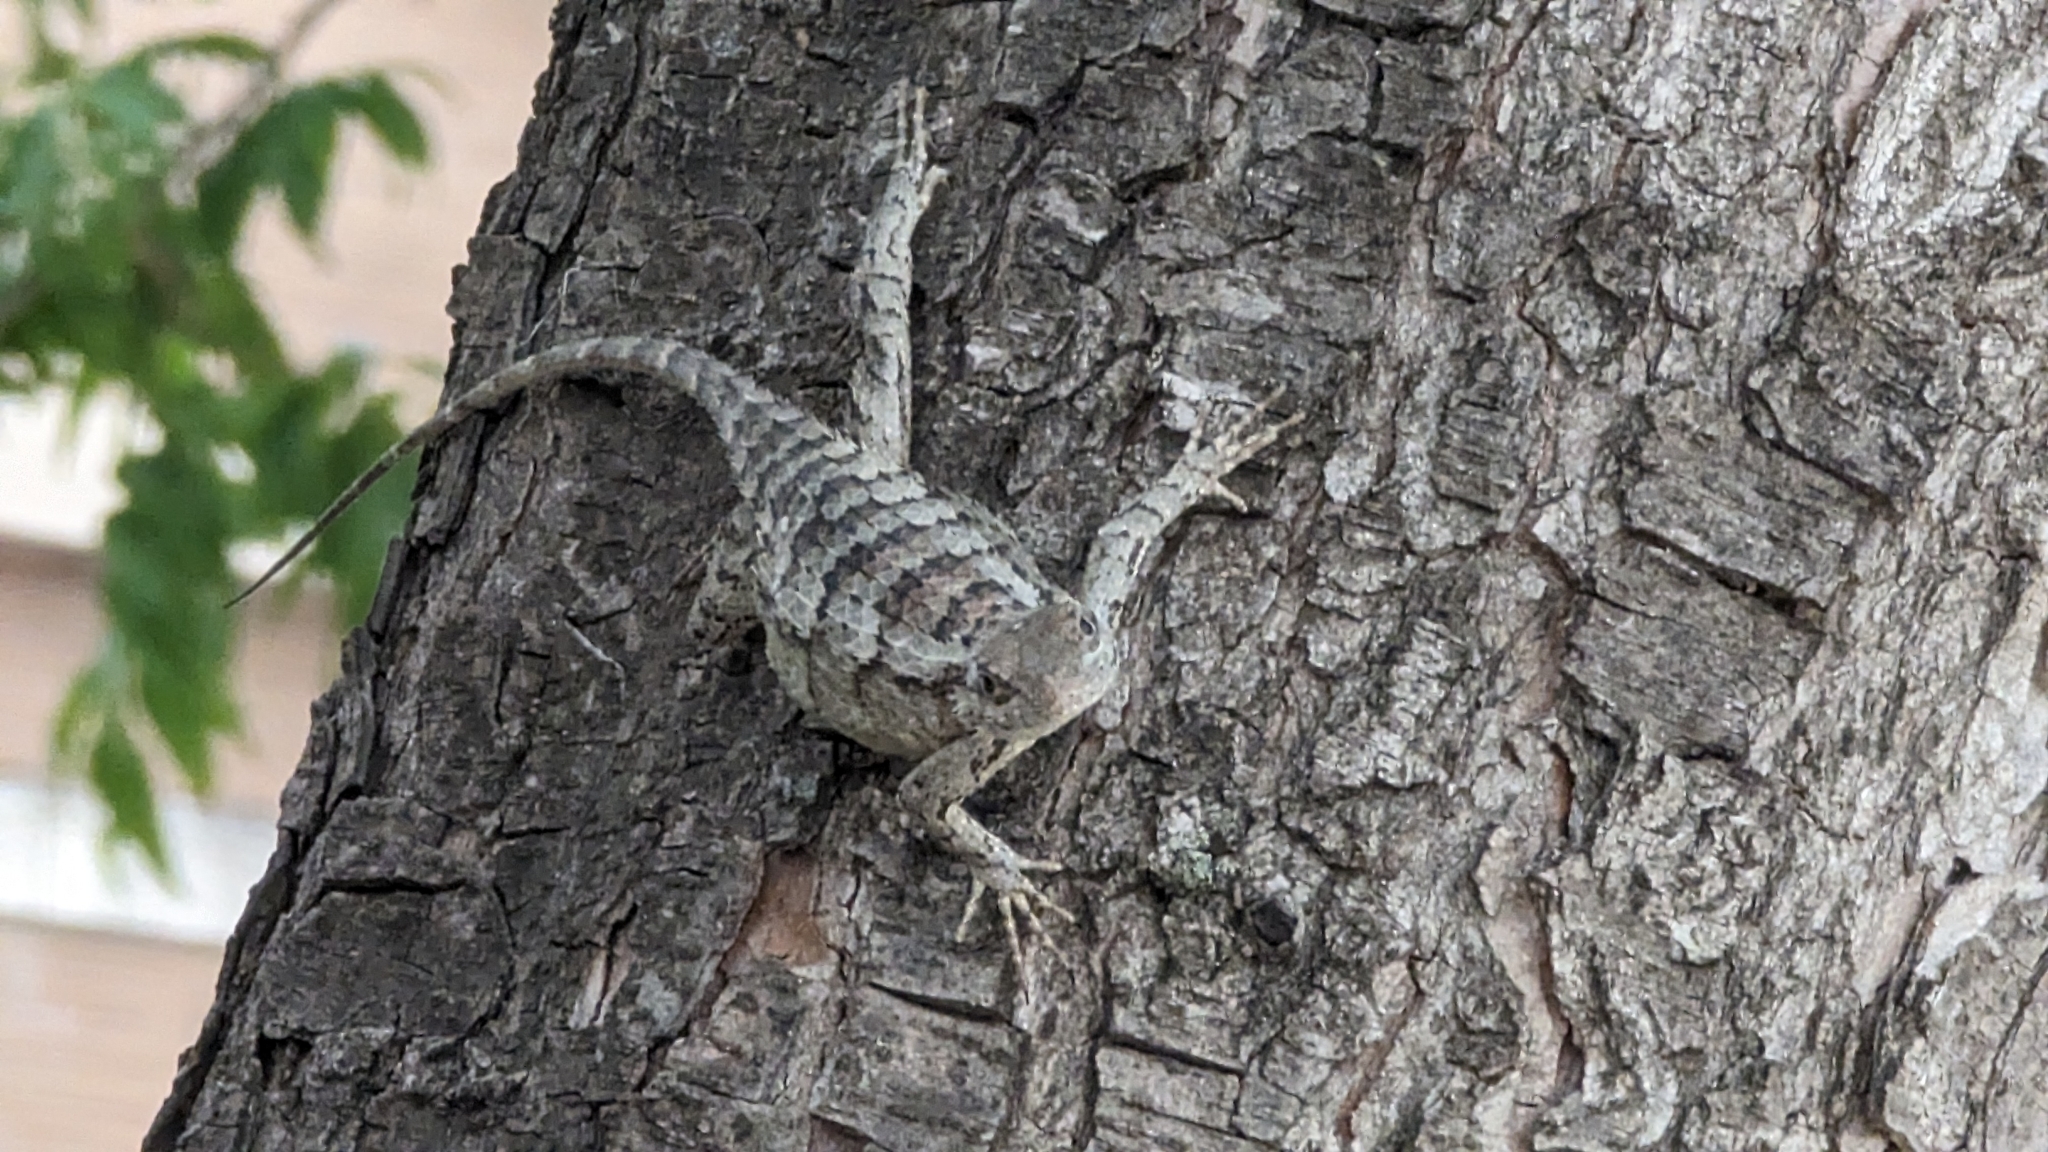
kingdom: Animalia
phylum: Chordata
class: Squamata
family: Phrynosomatidae
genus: Sceloporus
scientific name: Sceloporus olivaceus
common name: Texas spiny lizard
